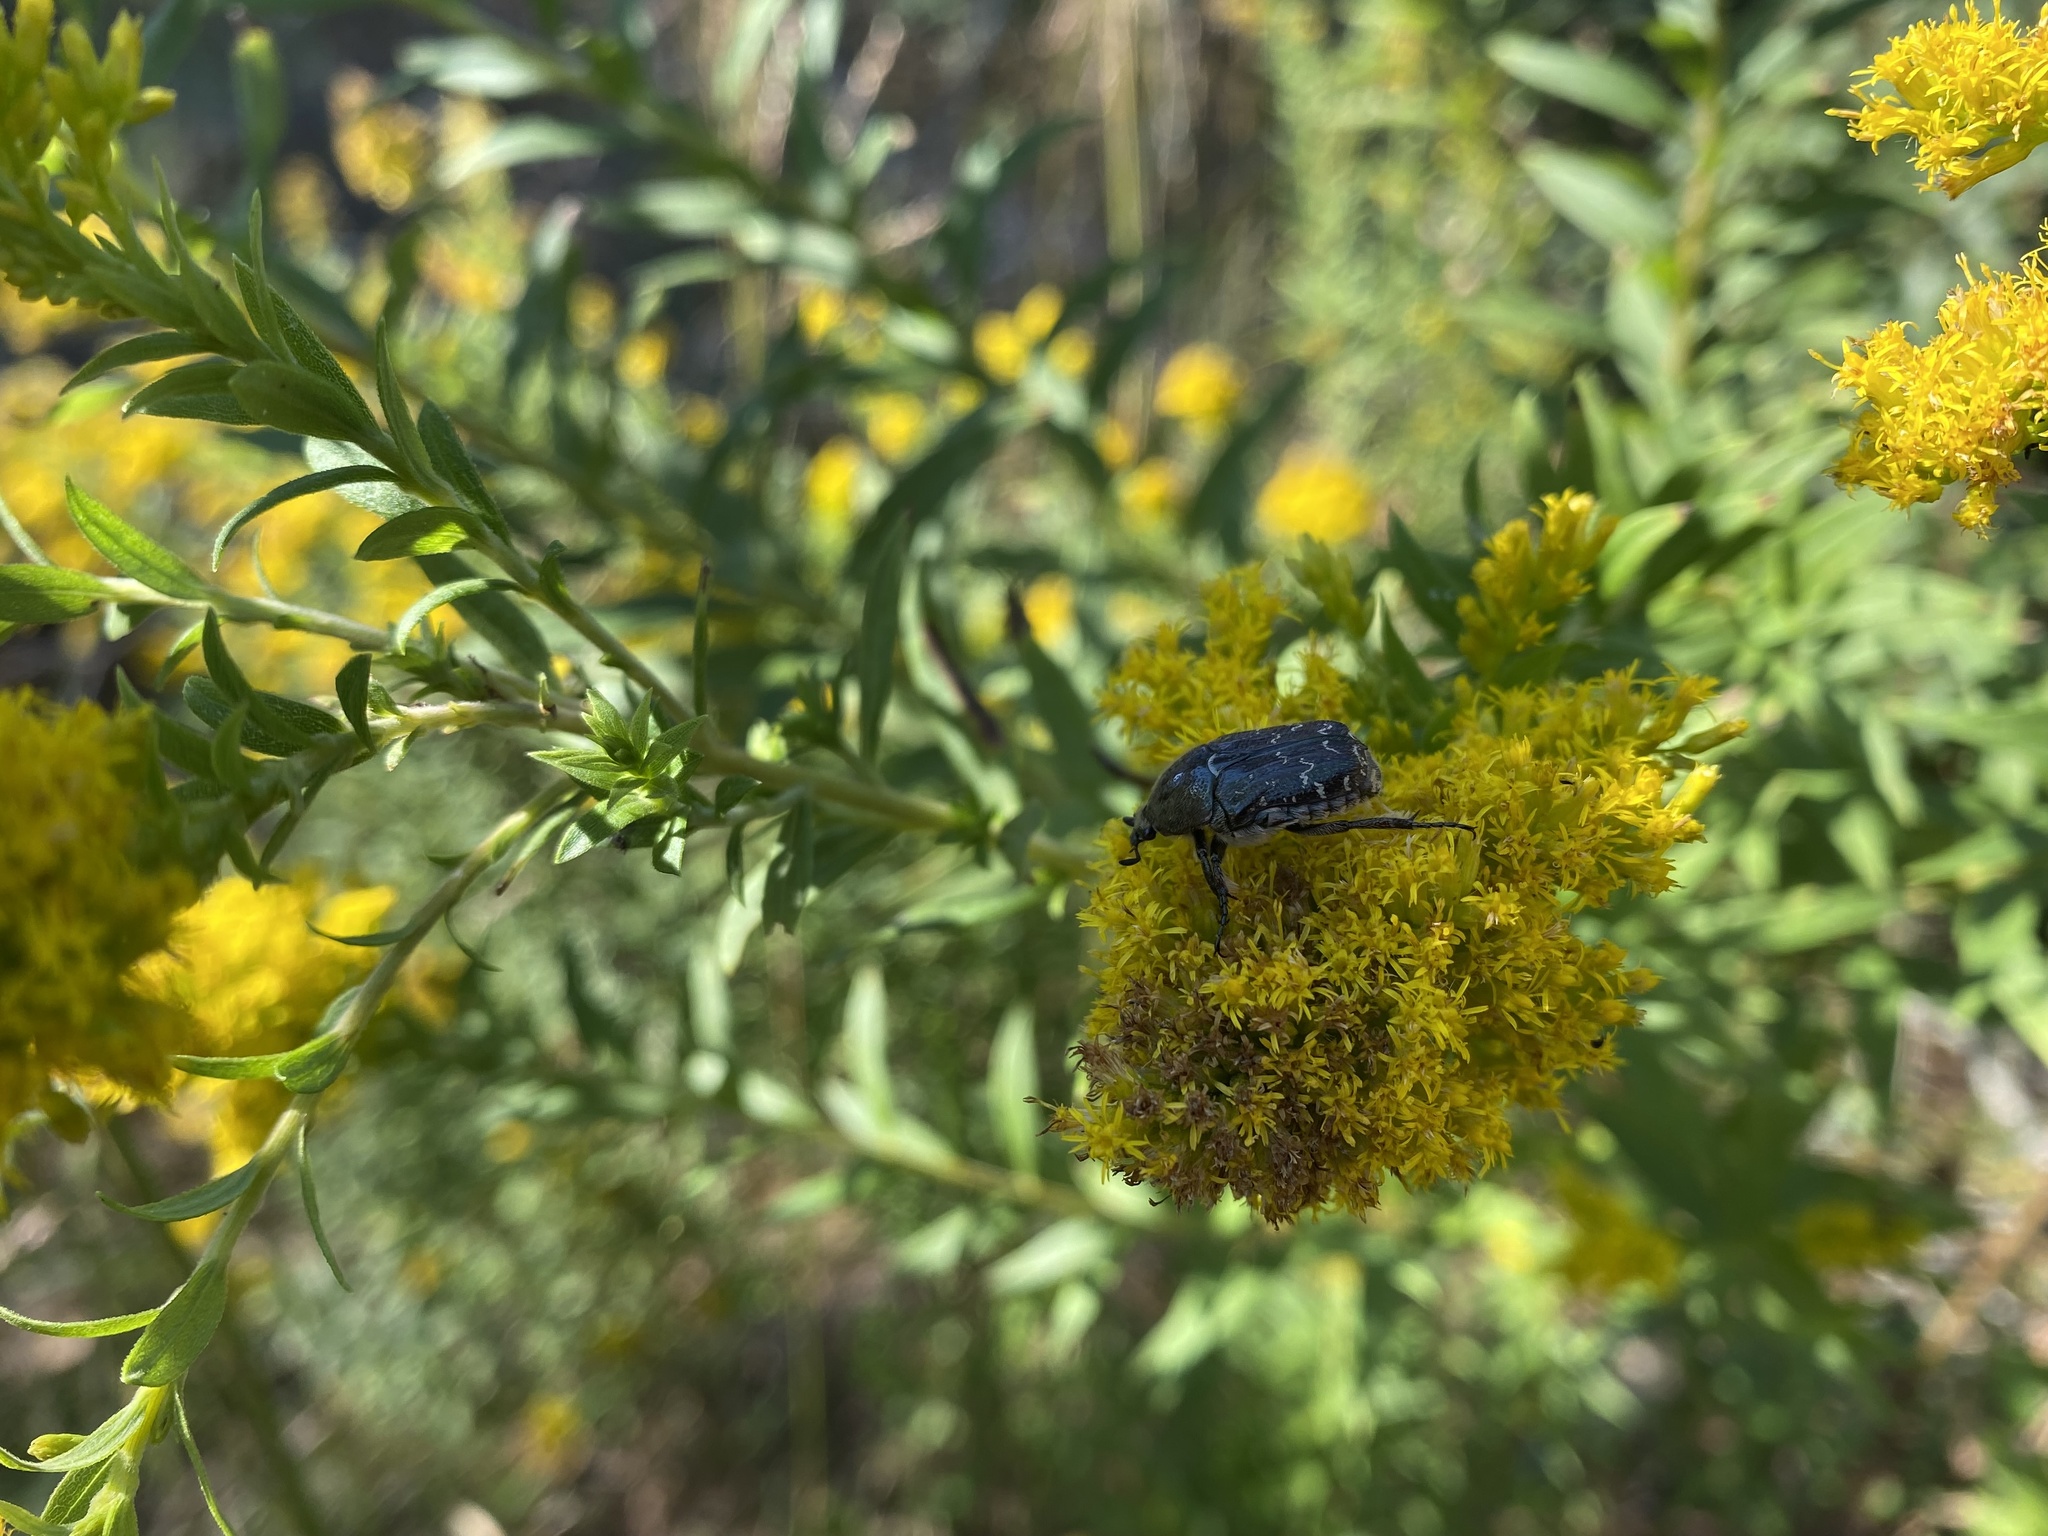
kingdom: Animalia
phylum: Arthropoda
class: Insecta
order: Coleoptera
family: Scarabaeidae
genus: Euphoria
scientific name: Euphoria sepulcralis
